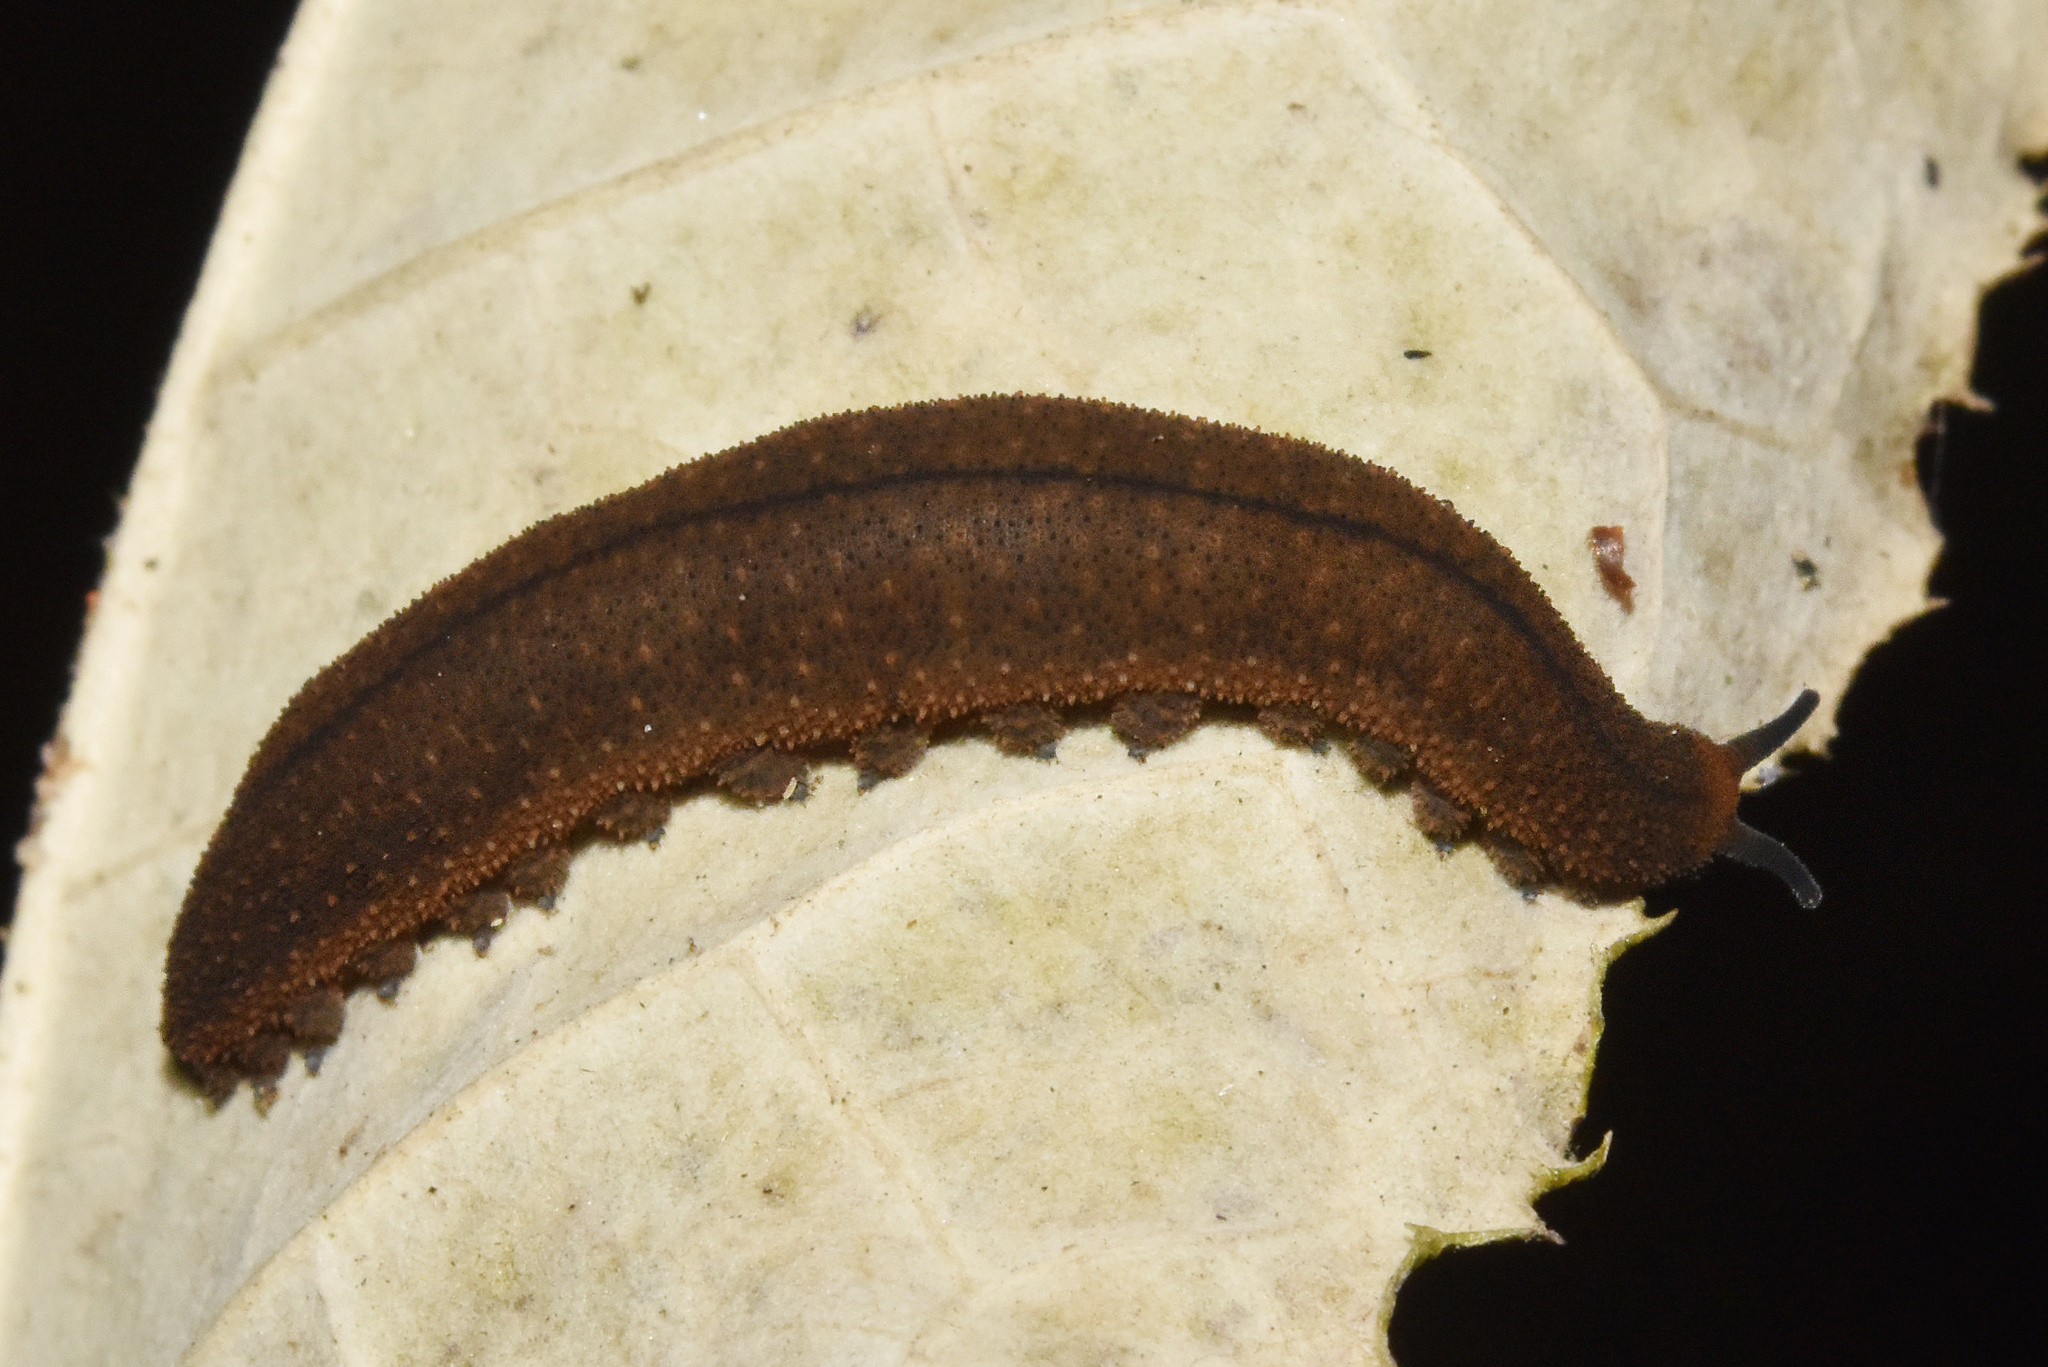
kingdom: Animalia
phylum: Onychophora
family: Peripatopsidae
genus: Opisthopatus
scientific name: Opisthopatus kwazululandi
